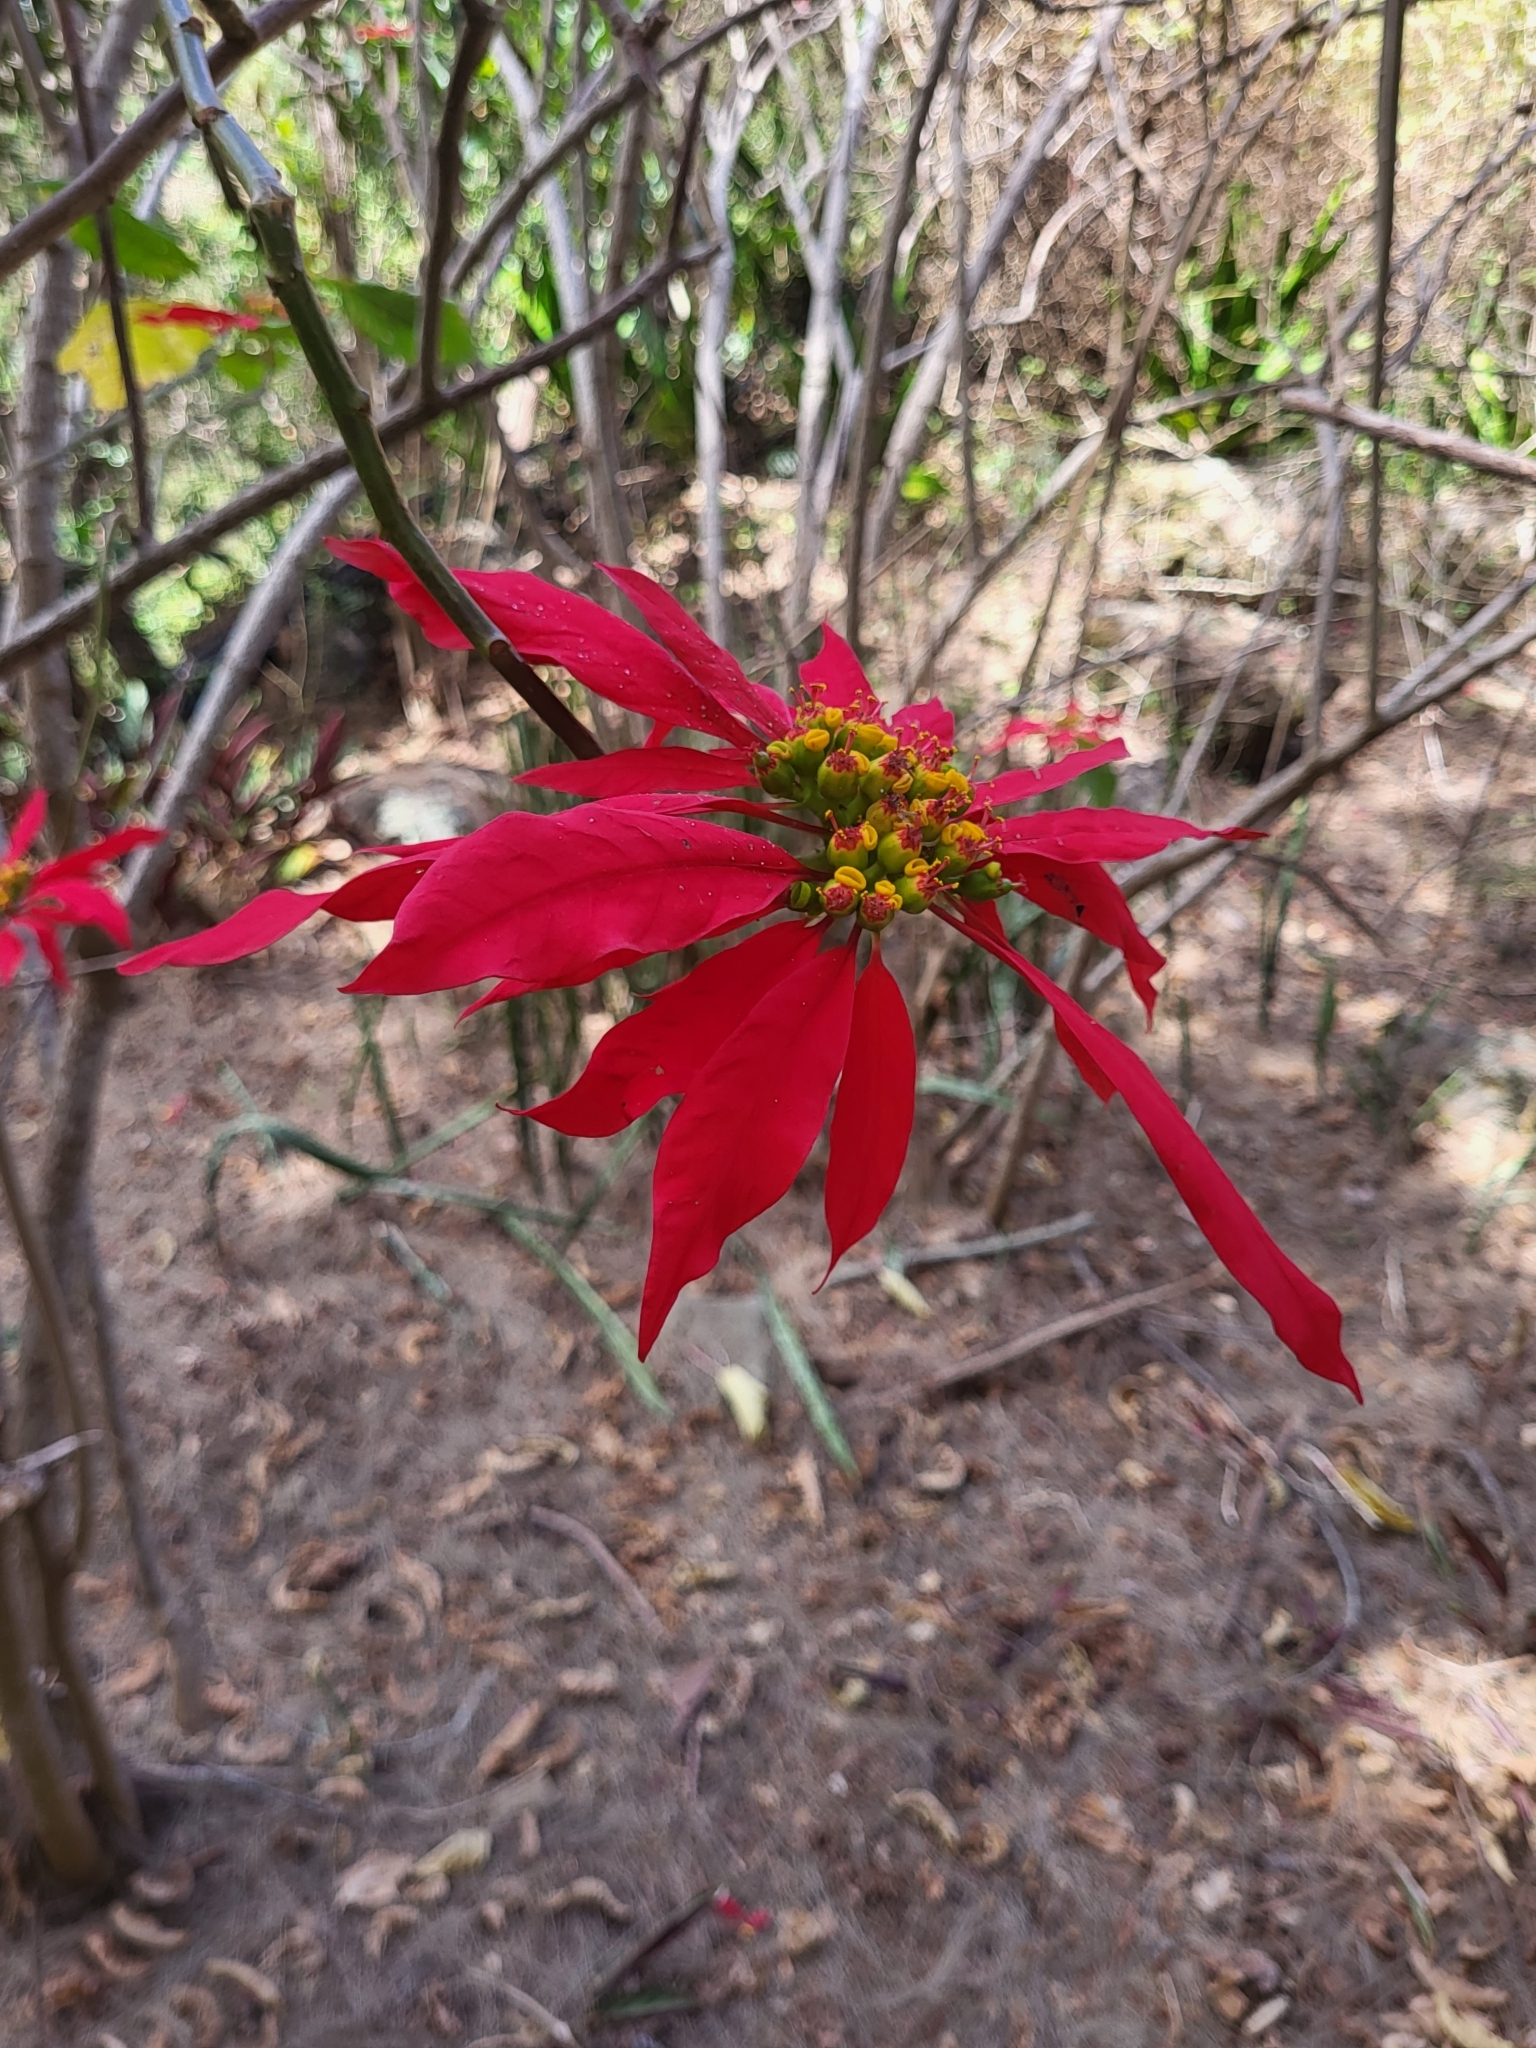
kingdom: Plantae
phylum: Tracheophyta
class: Magnoliopsida
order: Malpighiales
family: Euphorbiaceae
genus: Euphorbia
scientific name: Euphorbia pulcherrima
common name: Christmas-flower
